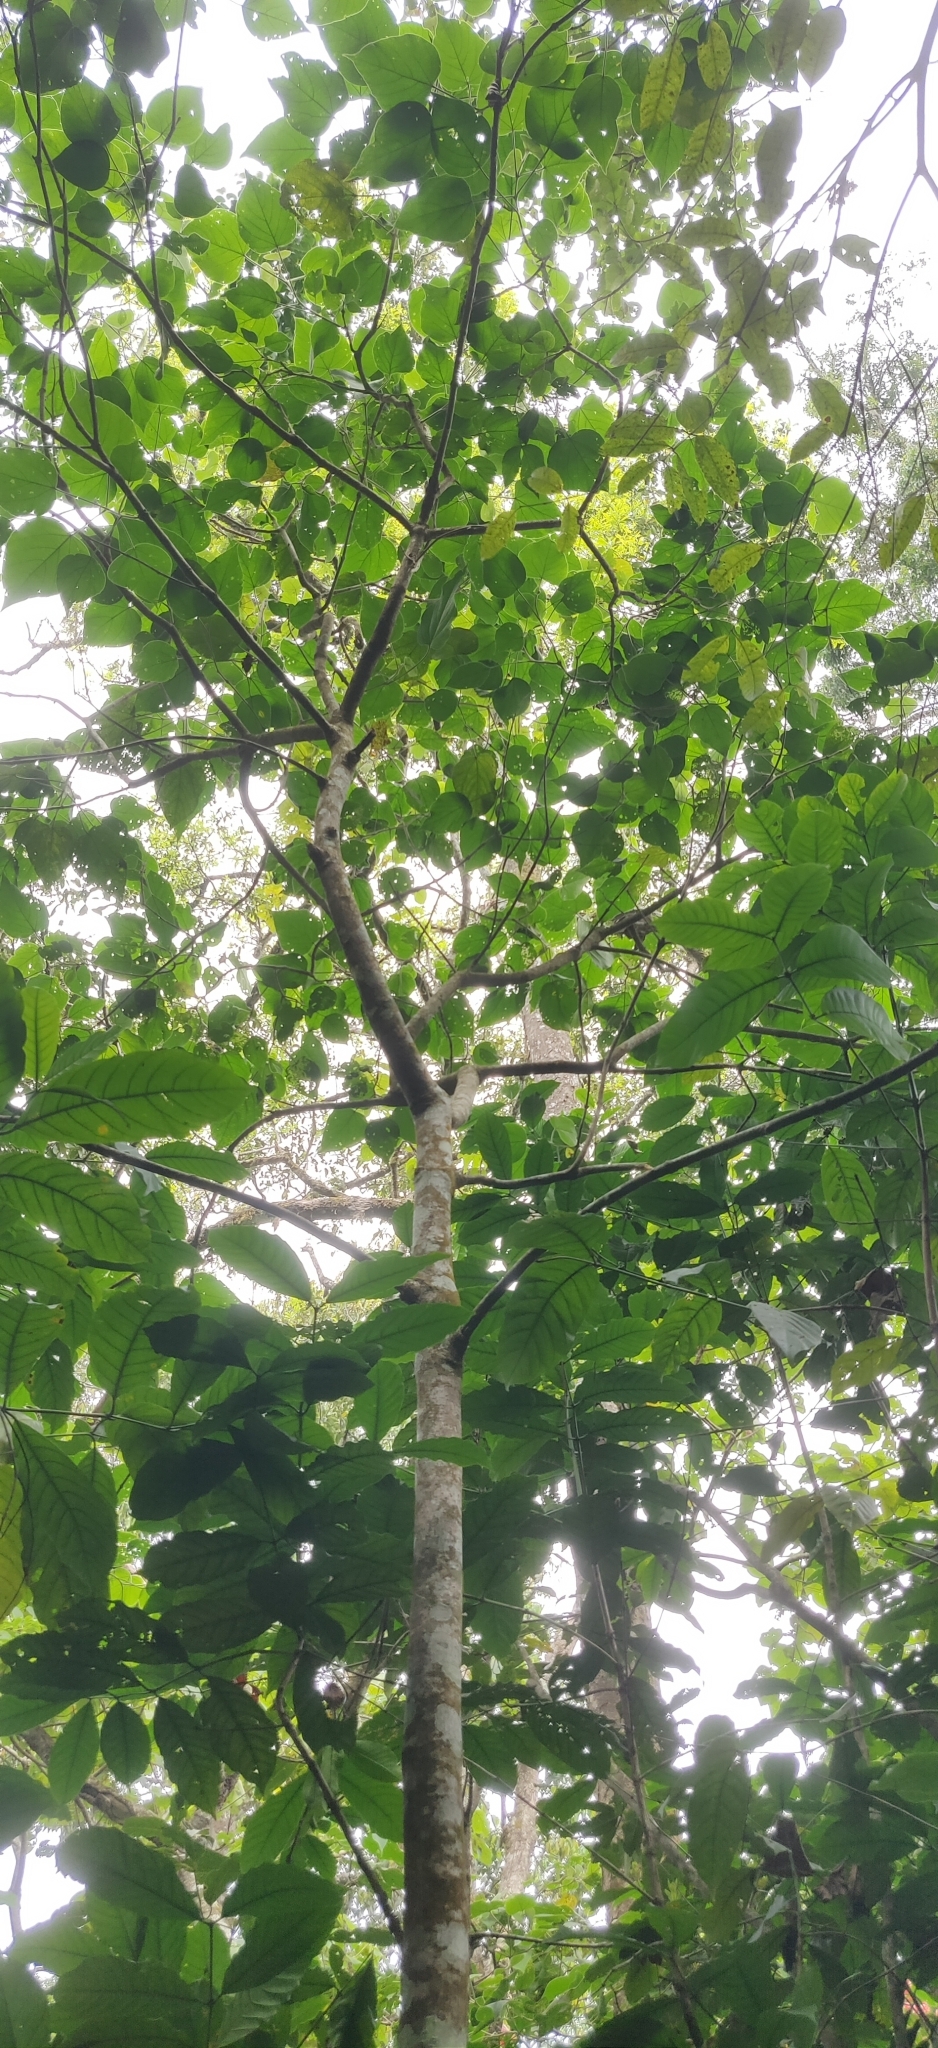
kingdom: Plantae
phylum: Tracheophyta
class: Magnoliopsida
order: Lamiales
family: Lamiaceae
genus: Clerodendrum
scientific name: Clerodendrum infortunatum
